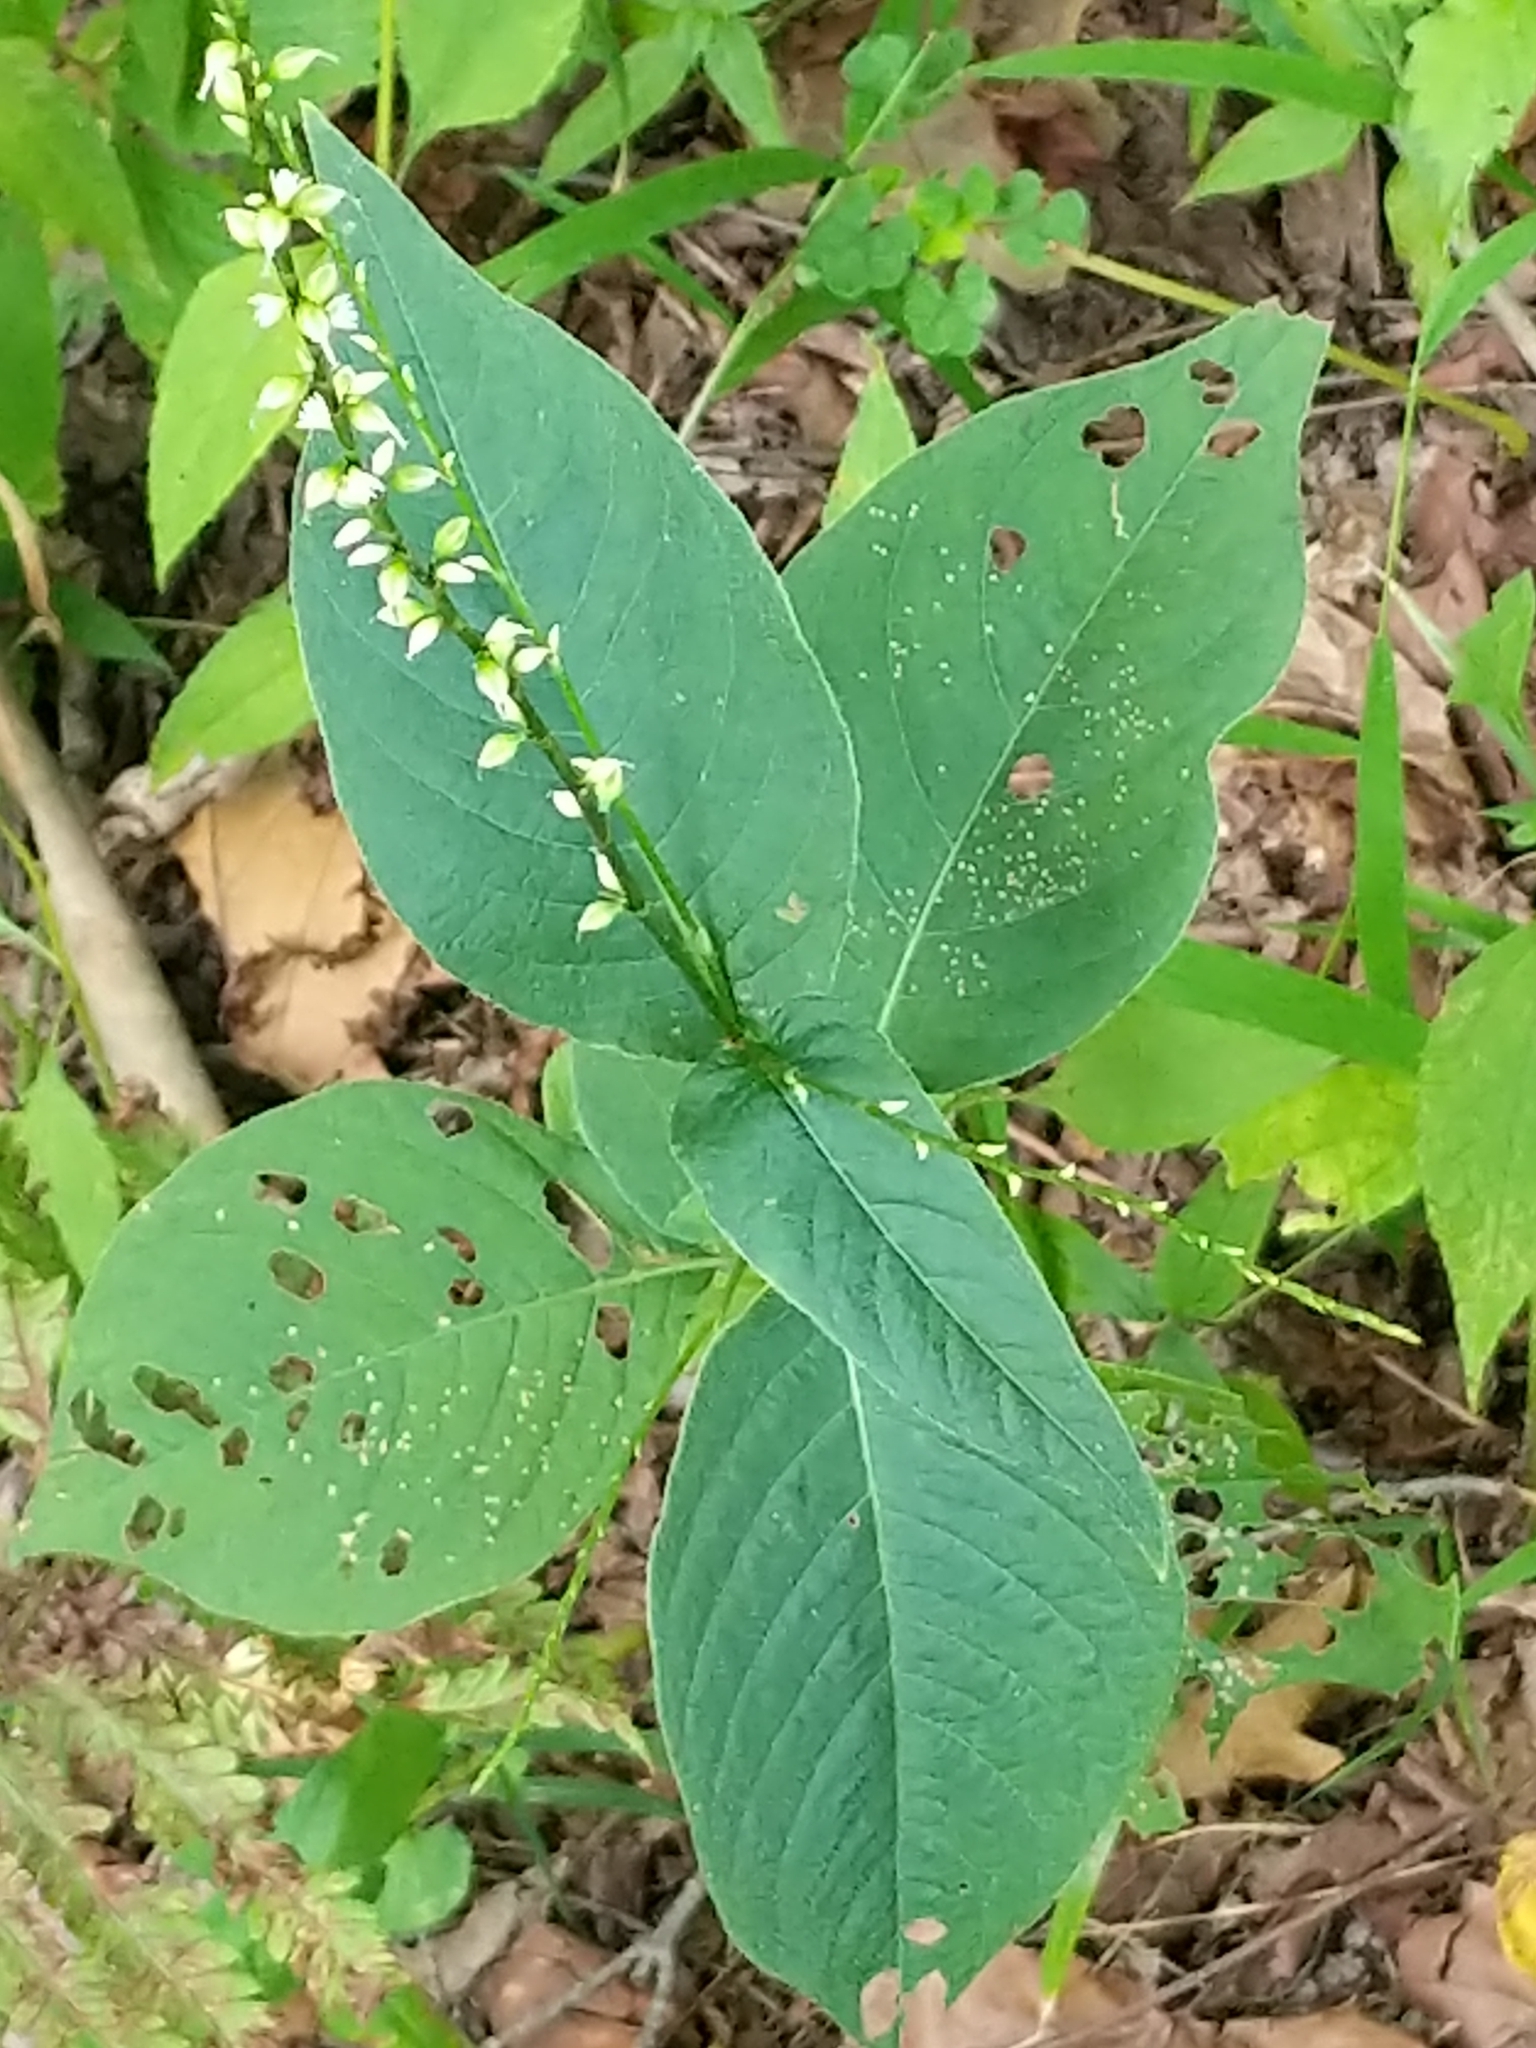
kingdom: Plantae
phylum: Tracheophyta
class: Magnoliopsida
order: Caryophyllales
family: Polygonaceae
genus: Persicaria
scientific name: Persicaria virginiana
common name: Jumpseed
